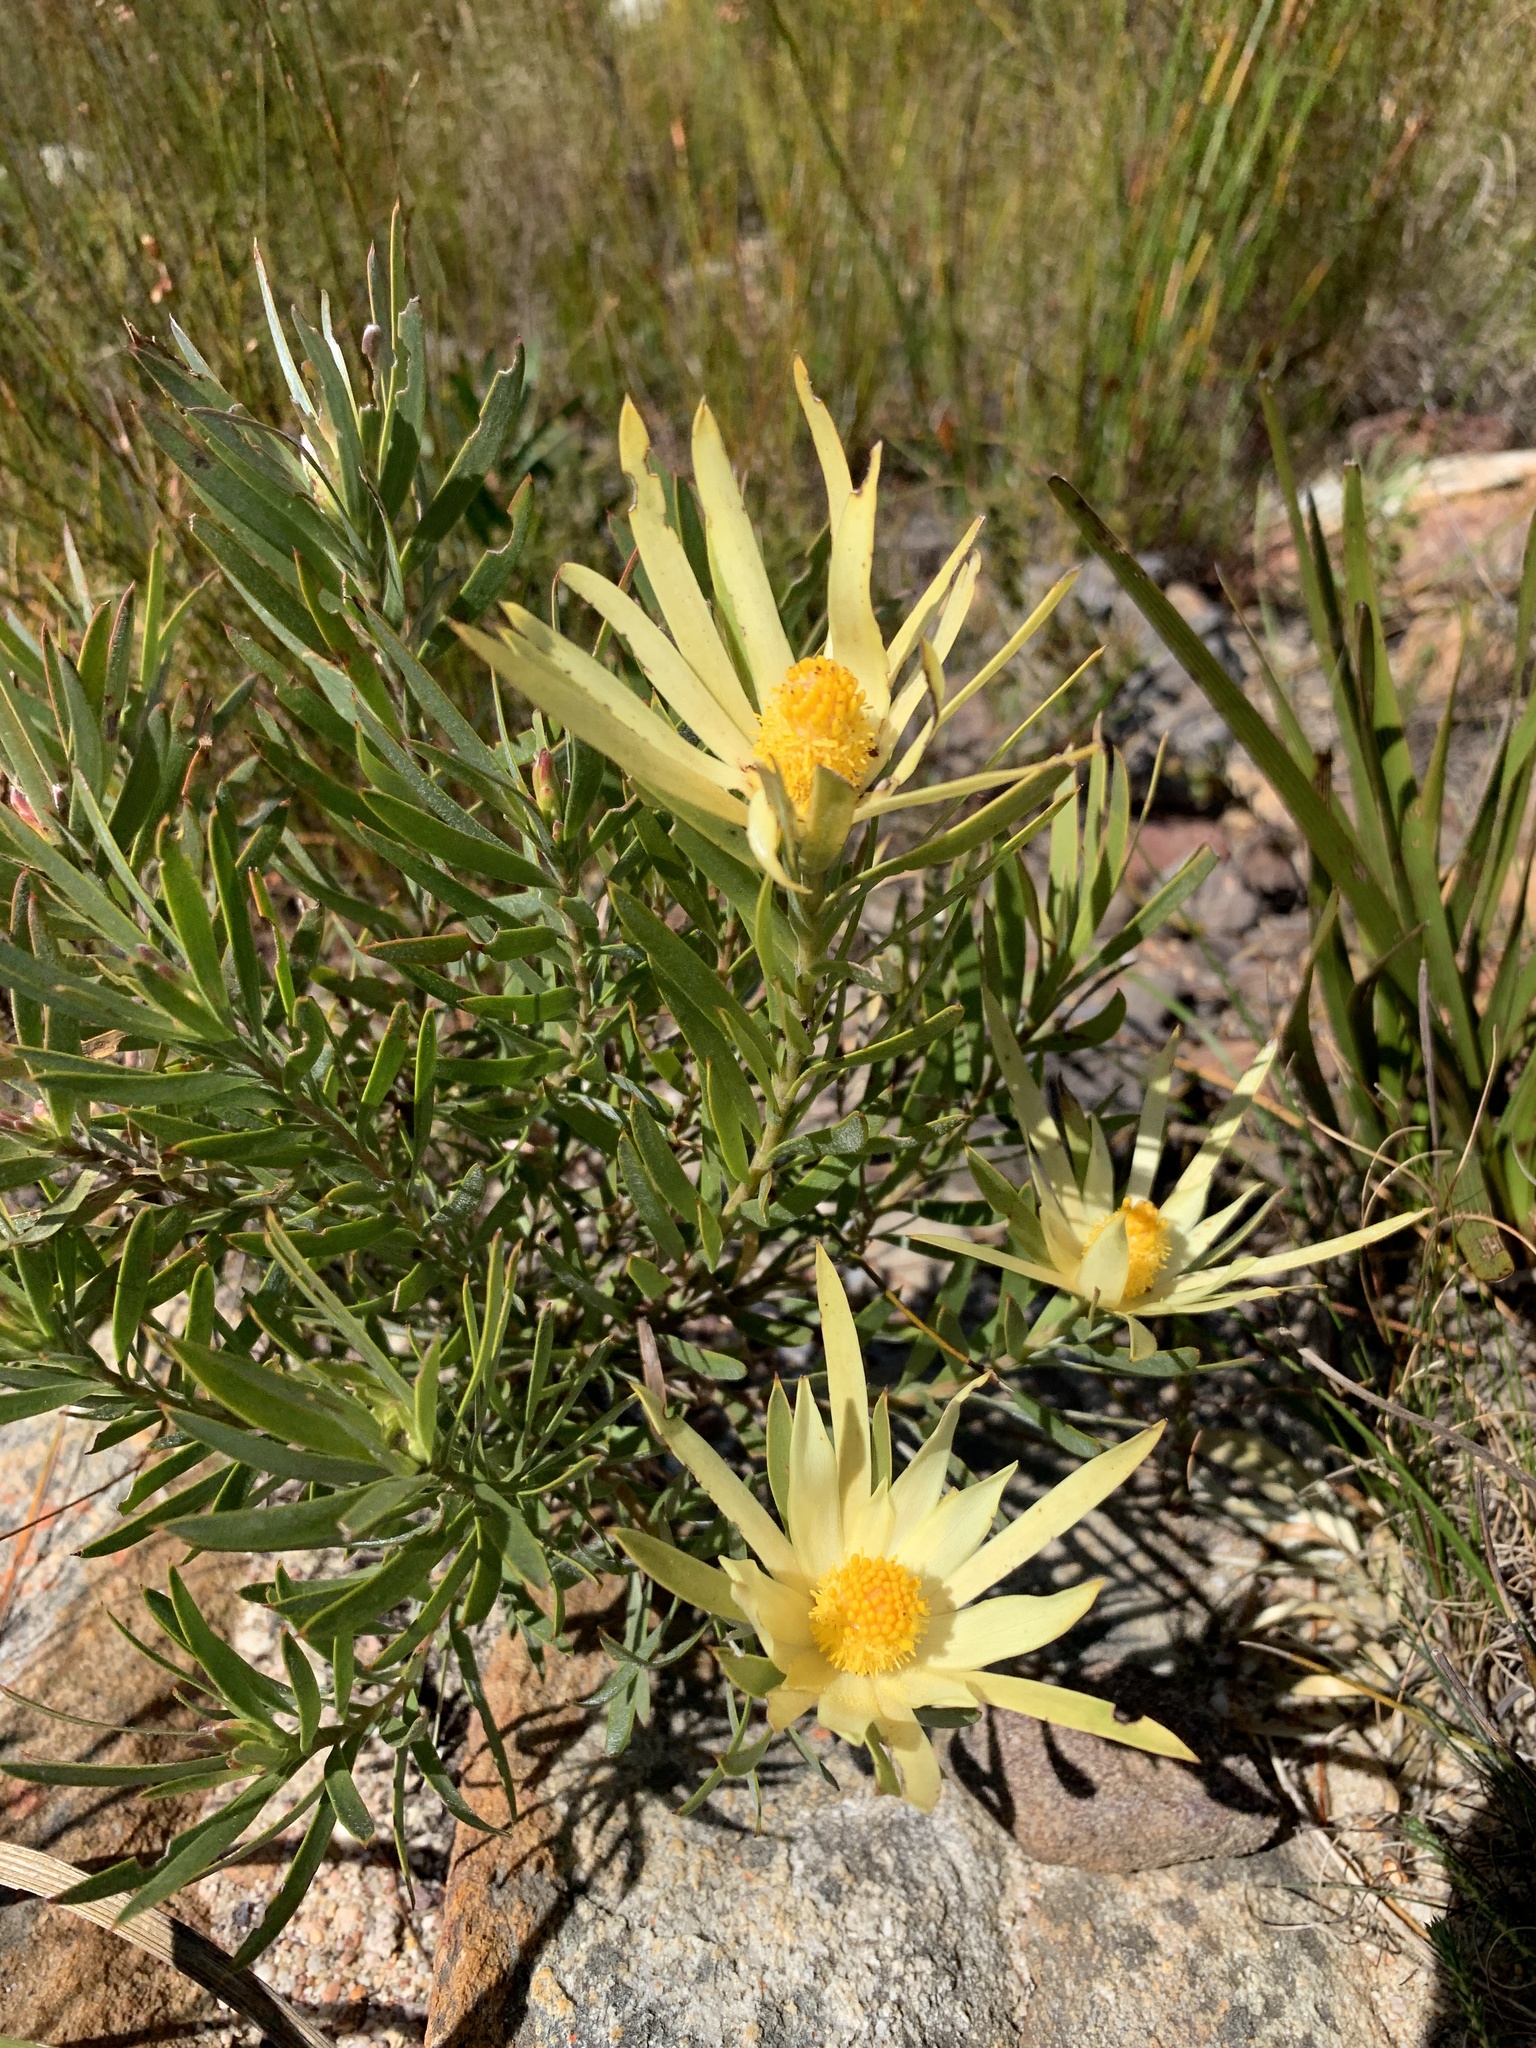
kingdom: Plantae
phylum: Tracheophyta
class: Magnoliopsida
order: Proteales
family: Proteaceae
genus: Leucadendron
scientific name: Leucadendron xanthoconus
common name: Sickle-leaf conebush
